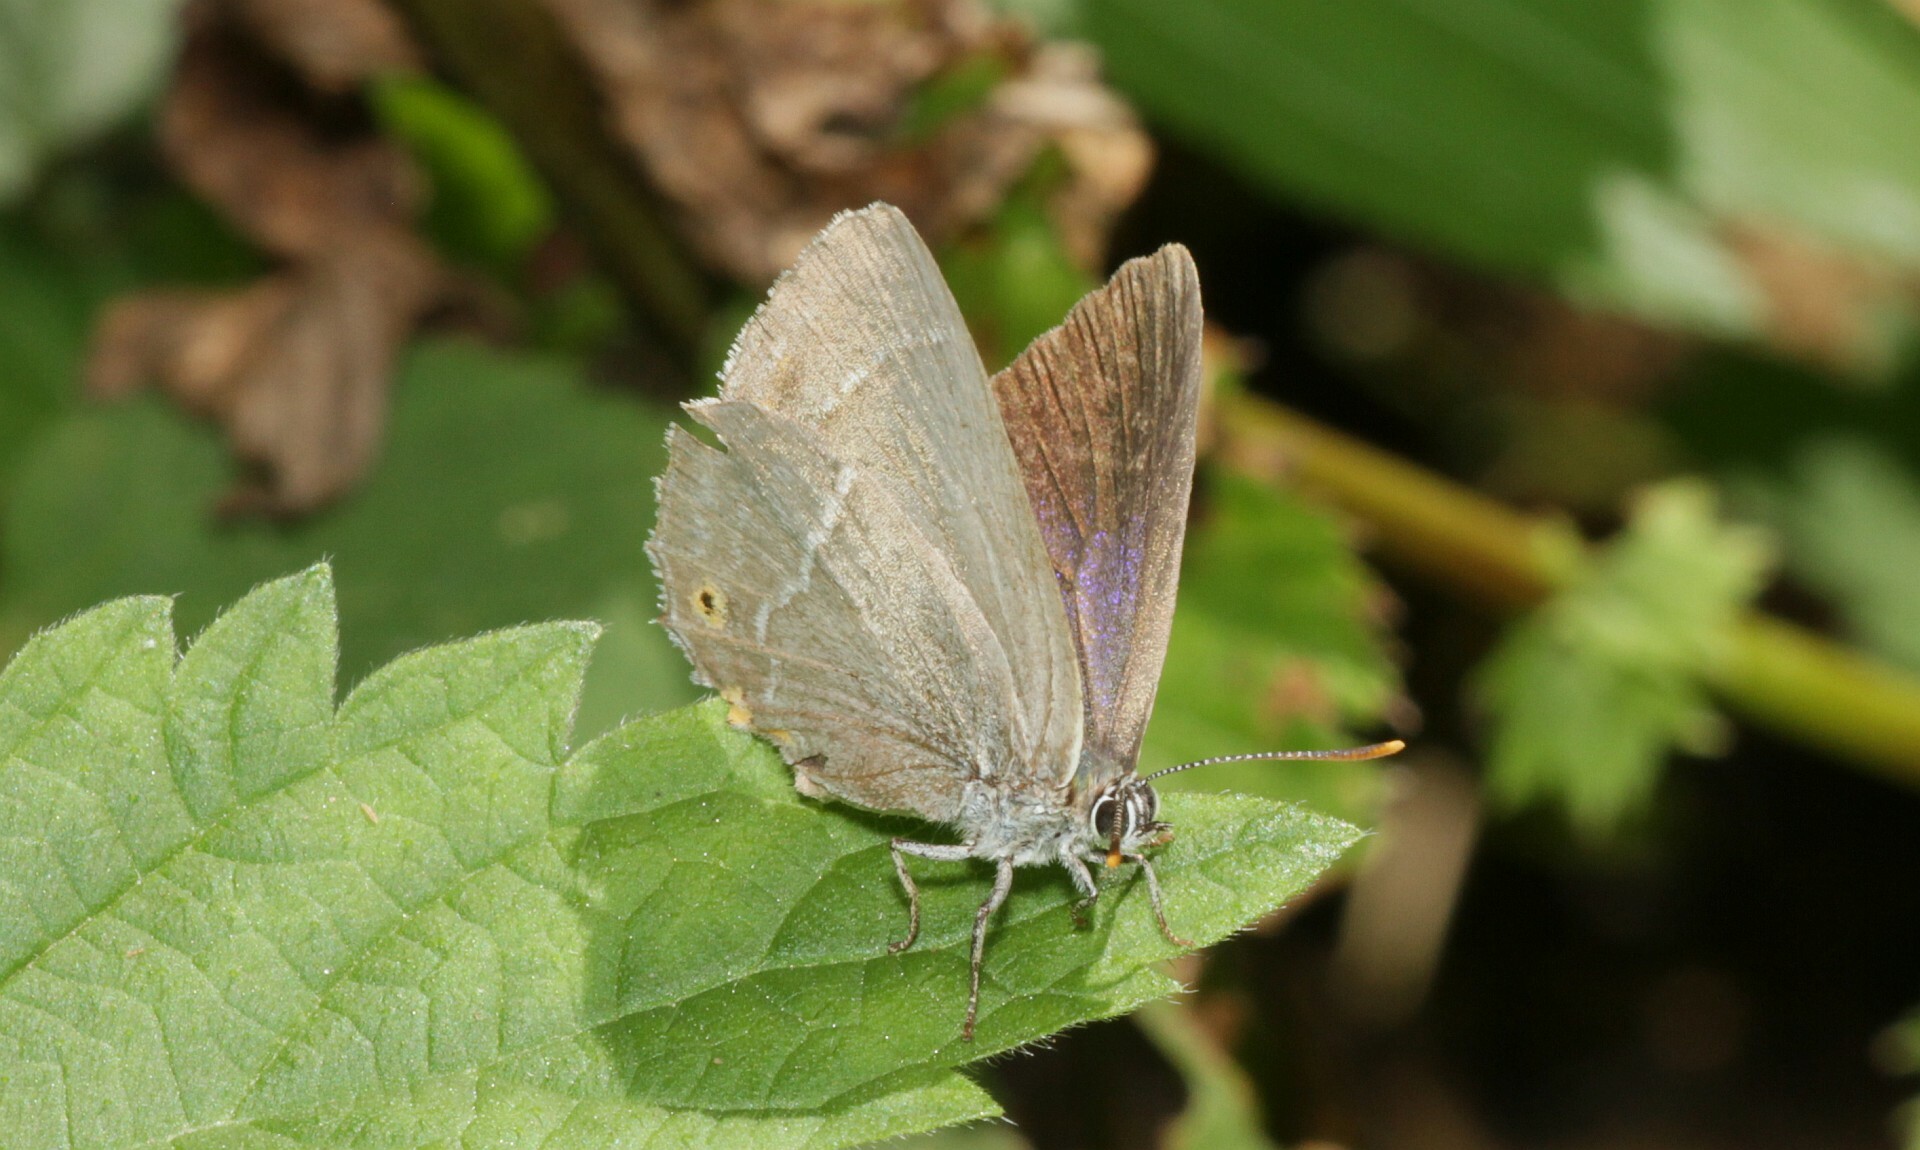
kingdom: Animalia
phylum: Arthropoda
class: Insecta
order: Lepidoptera
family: Lycaenidae
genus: Quercusia
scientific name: Quercusia quercus
